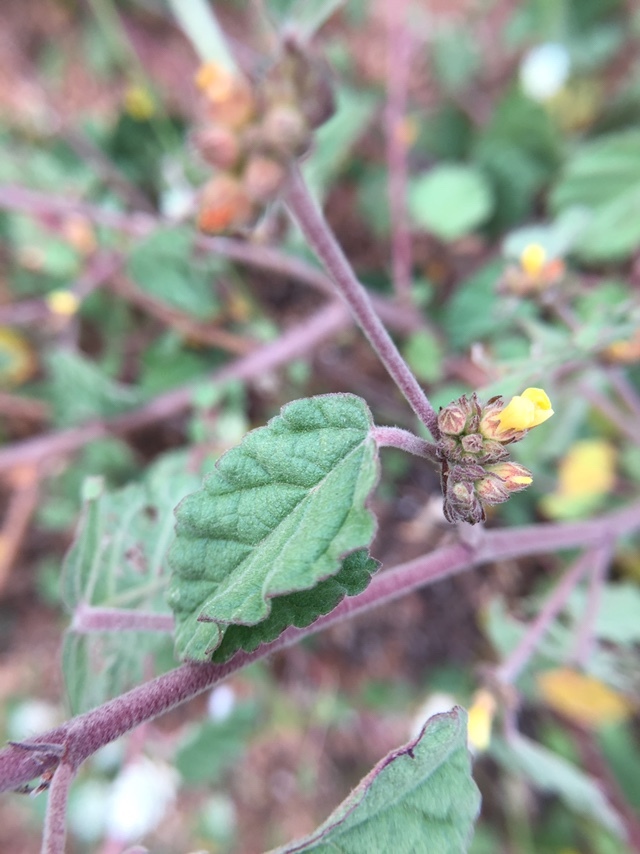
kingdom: Plantae
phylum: Tracheophyta
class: Magnoliopsida
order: Malvales
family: Malvaceae
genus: Waltheria
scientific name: Waltheria indica
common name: Leather-coat
